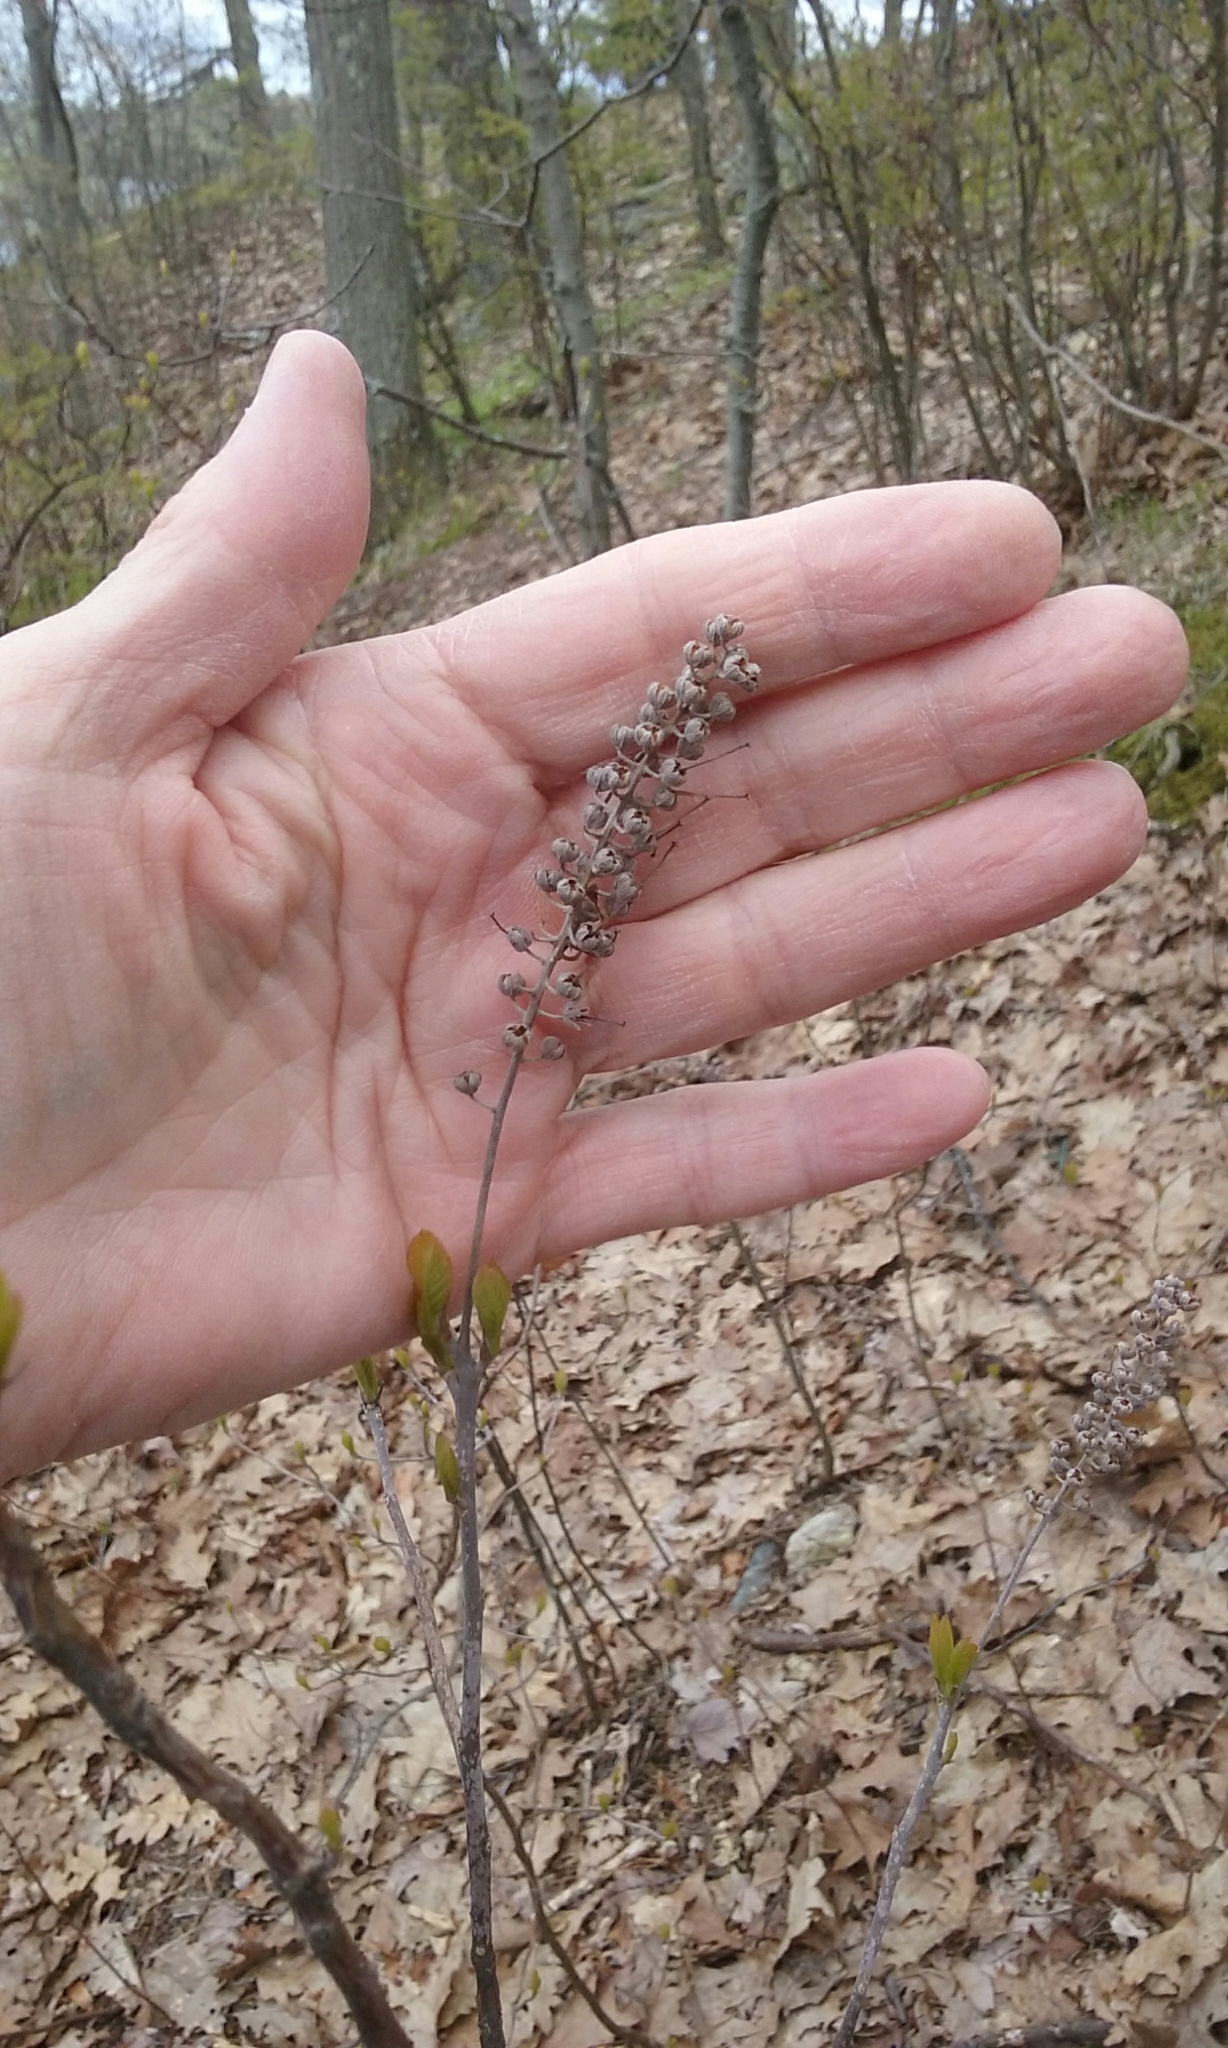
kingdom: Plantae
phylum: Tracheophyta
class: Magnoliopsida
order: Ericales
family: Clethraceae
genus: Clethra
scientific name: Clethra alnifolia
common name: Sweet pepperbush
